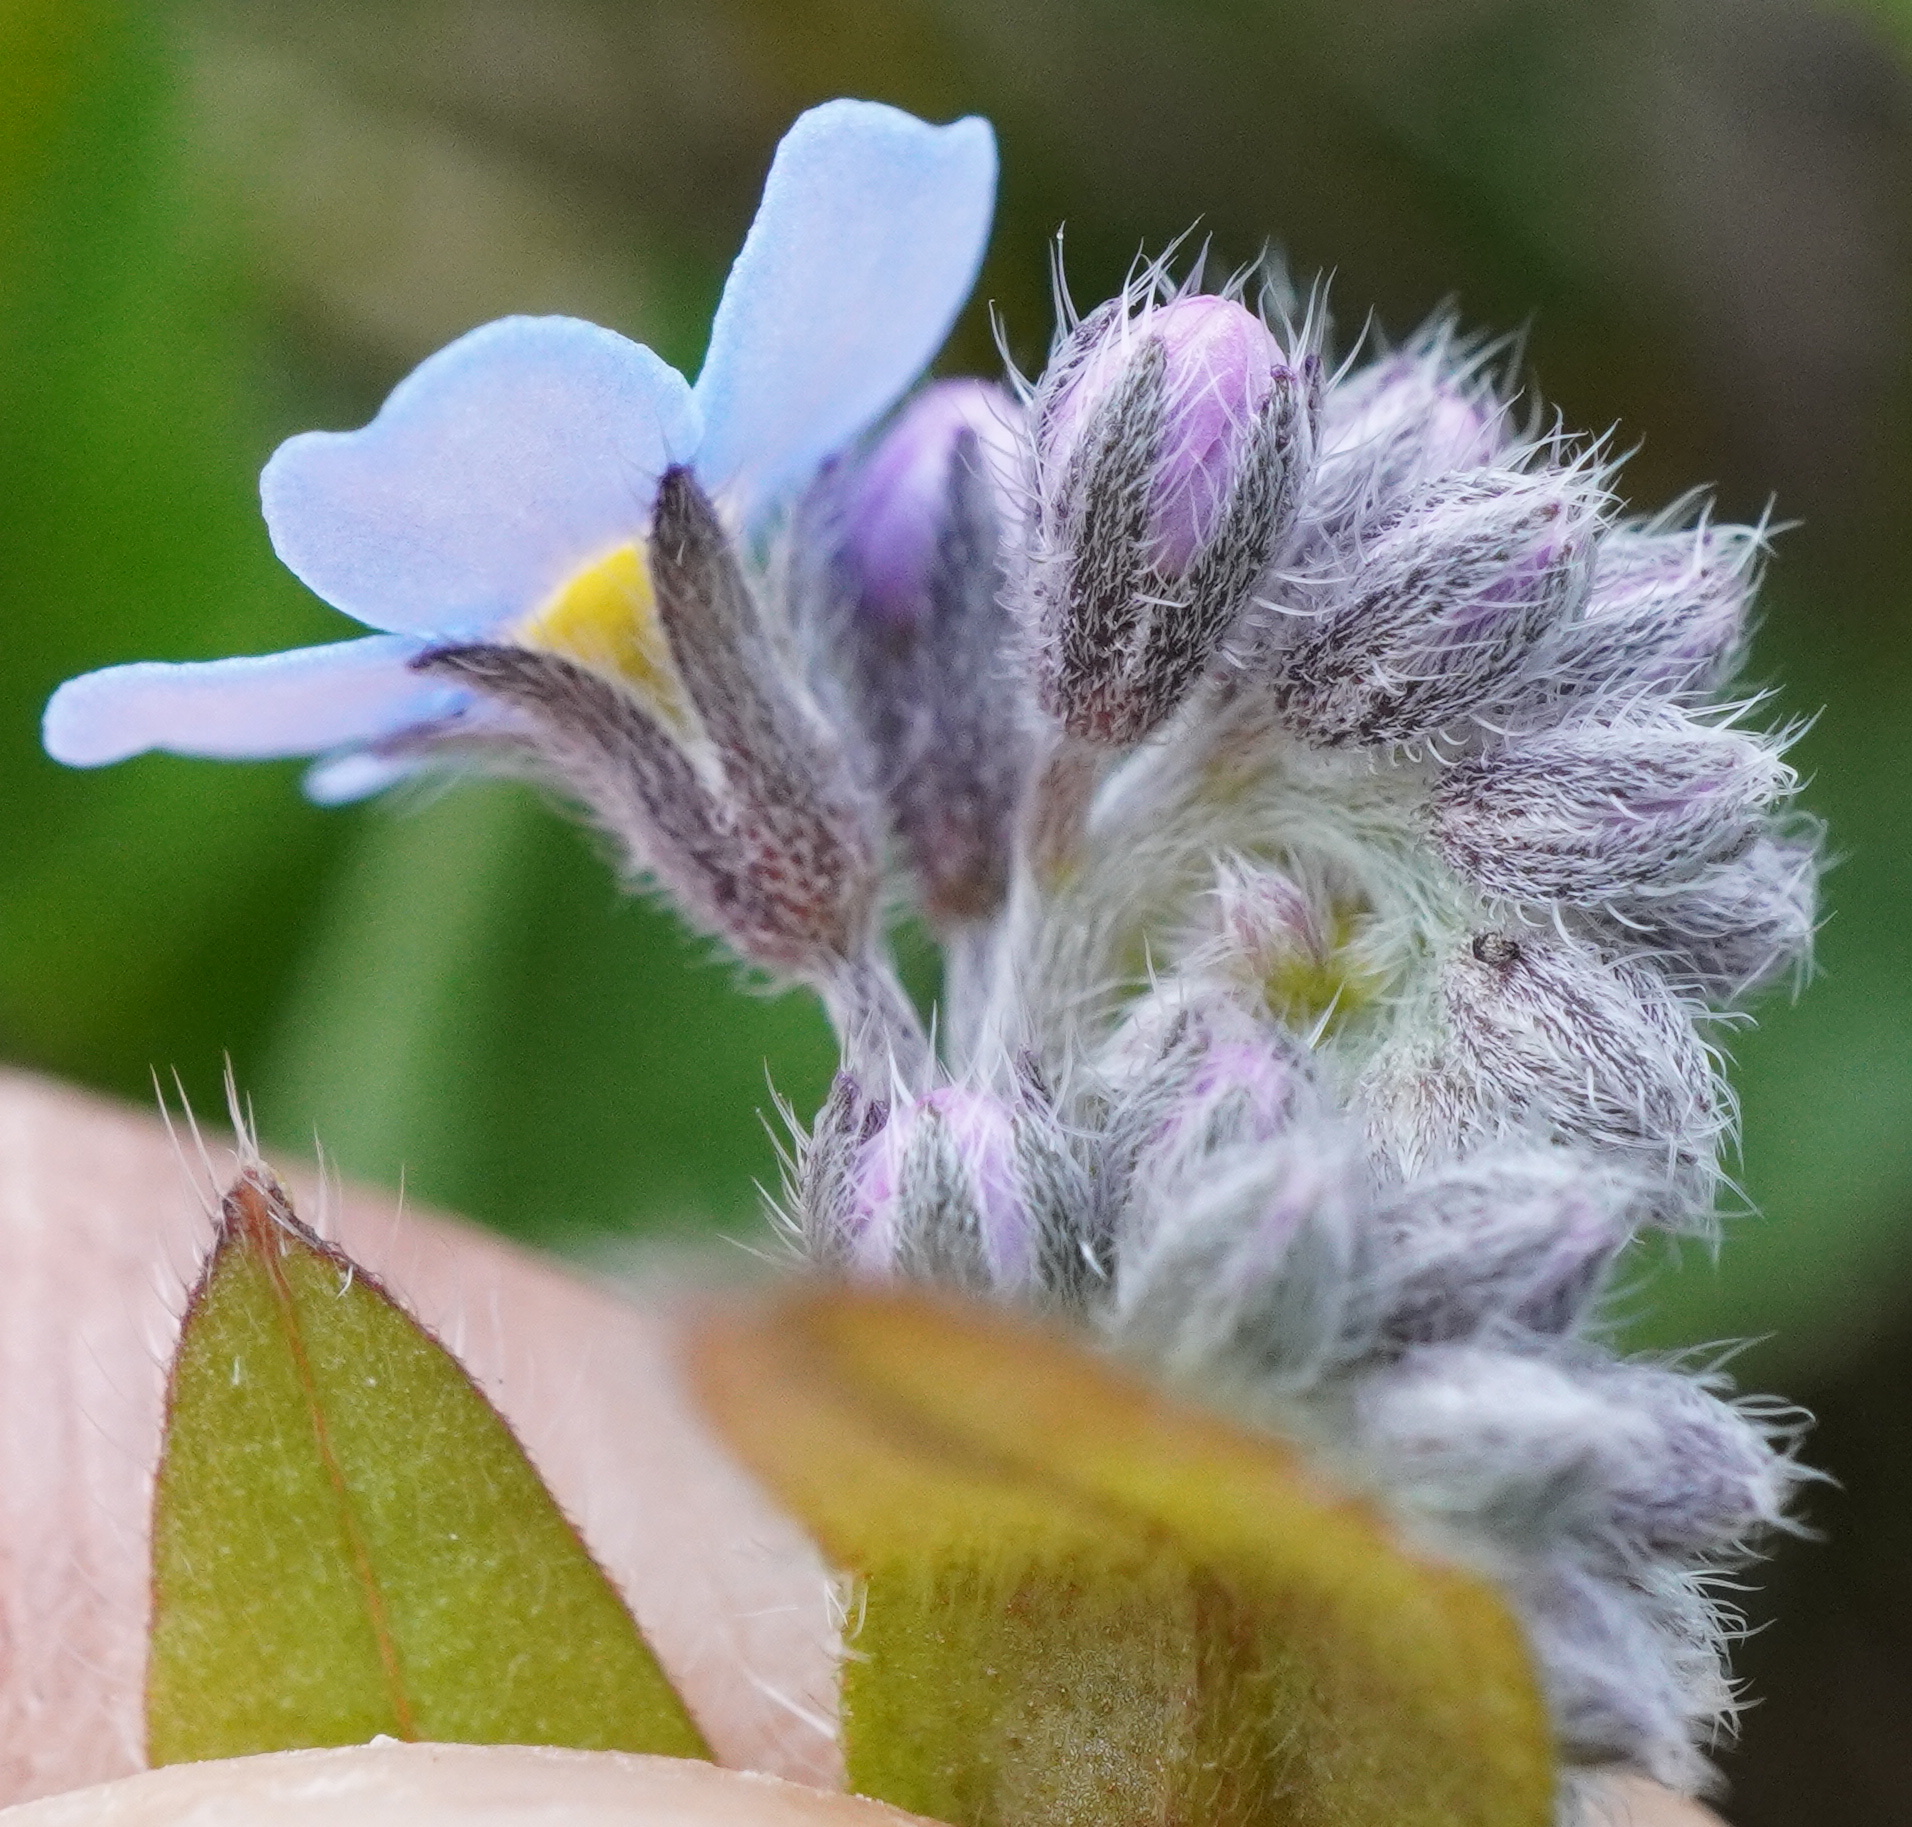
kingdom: Plantae
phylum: Tracheophyta
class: Magnoliopsida
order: Boraginales
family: Boraginaceae
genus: Myosotis
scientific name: Myosotis sylvatica
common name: Wood forget-me-not
